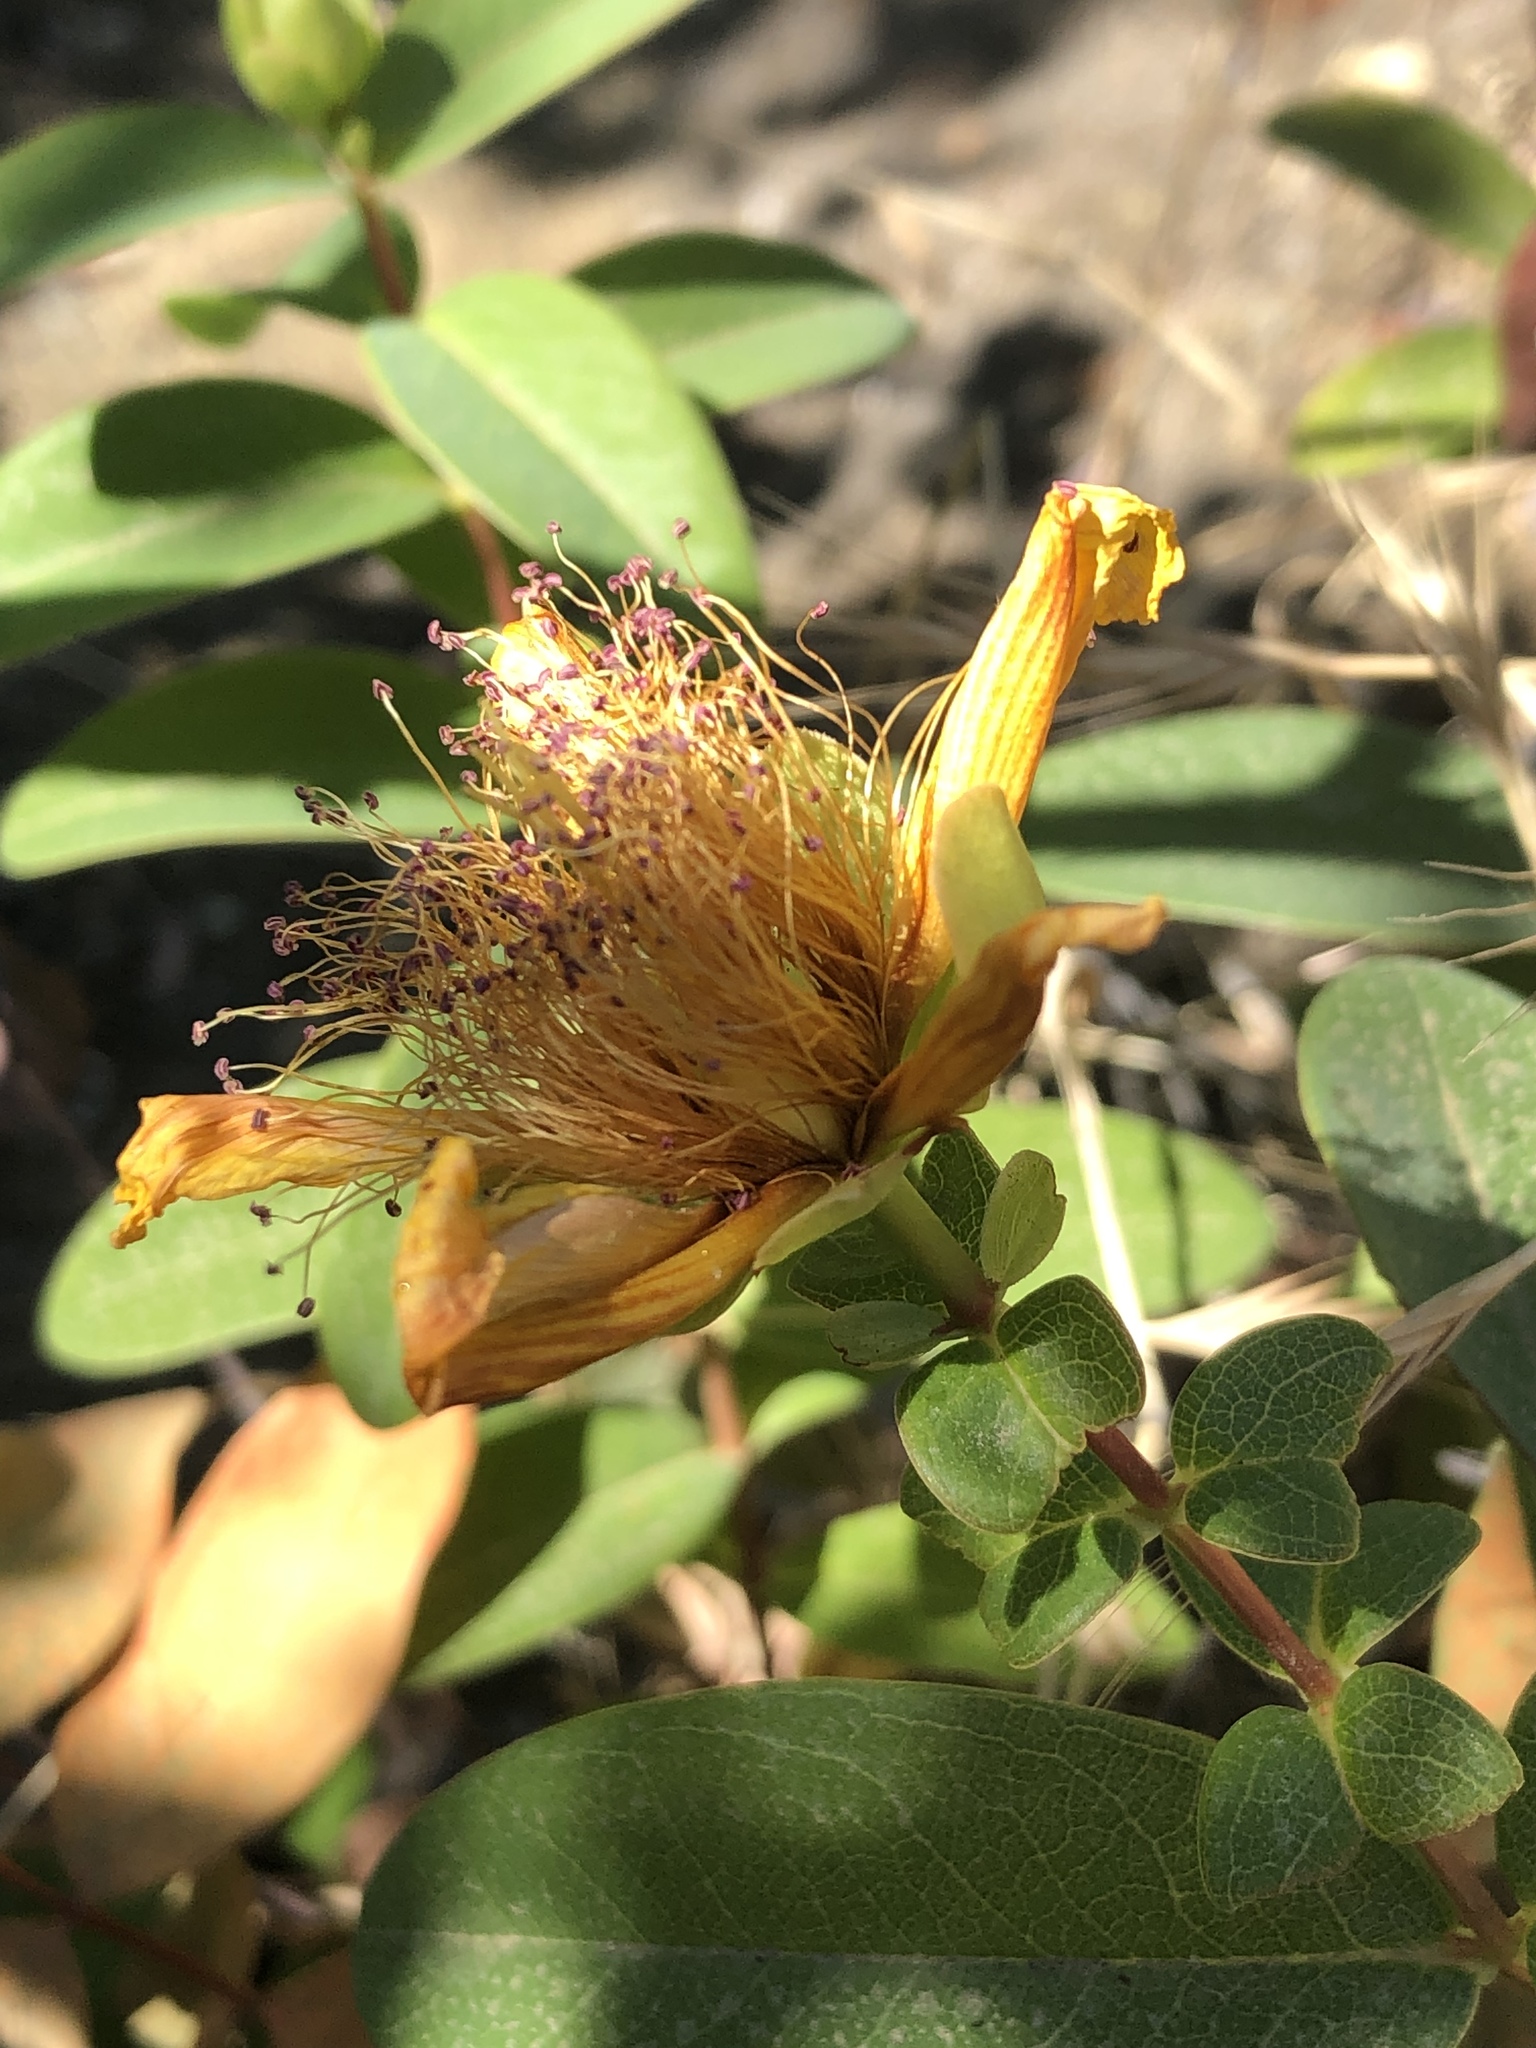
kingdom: Plantae
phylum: Tracheophyta
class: Magnoliopsida
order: Malpighiales
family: Hypericaceae
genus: Hypericum
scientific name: Hypericum calycinum
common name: Rose-of-sharon
